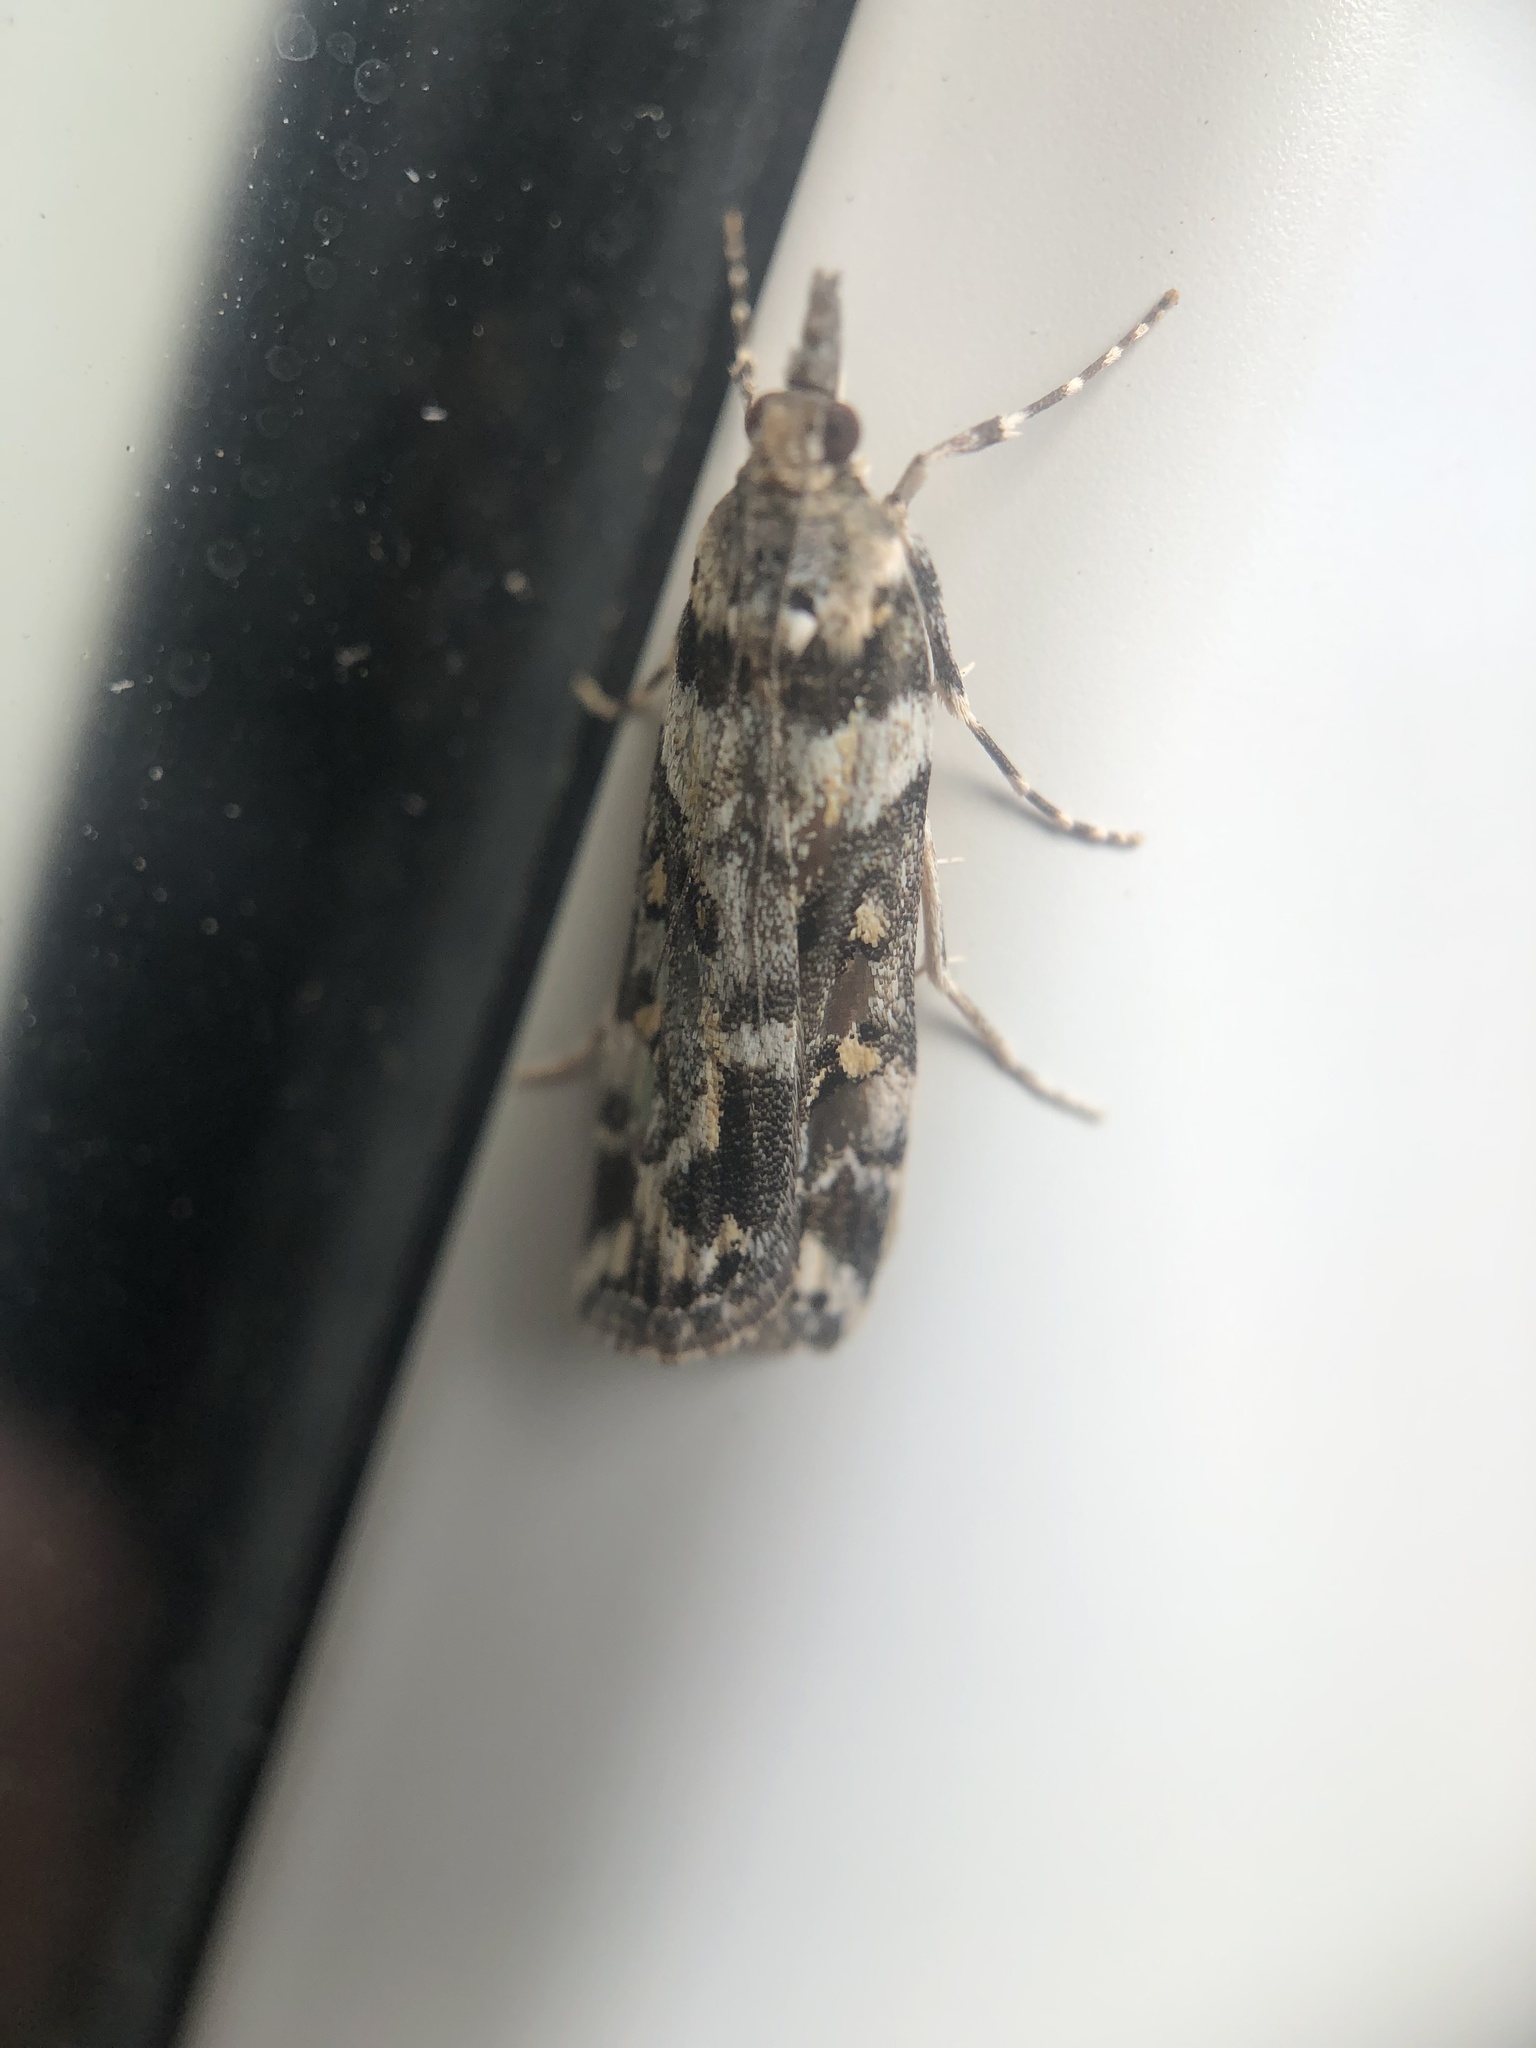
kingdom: Animalia
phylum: Arthropoda
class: Insecta
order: Lepidoptera
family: Crambidae
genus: Eudonia
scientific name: Eudonia diphtheralis
